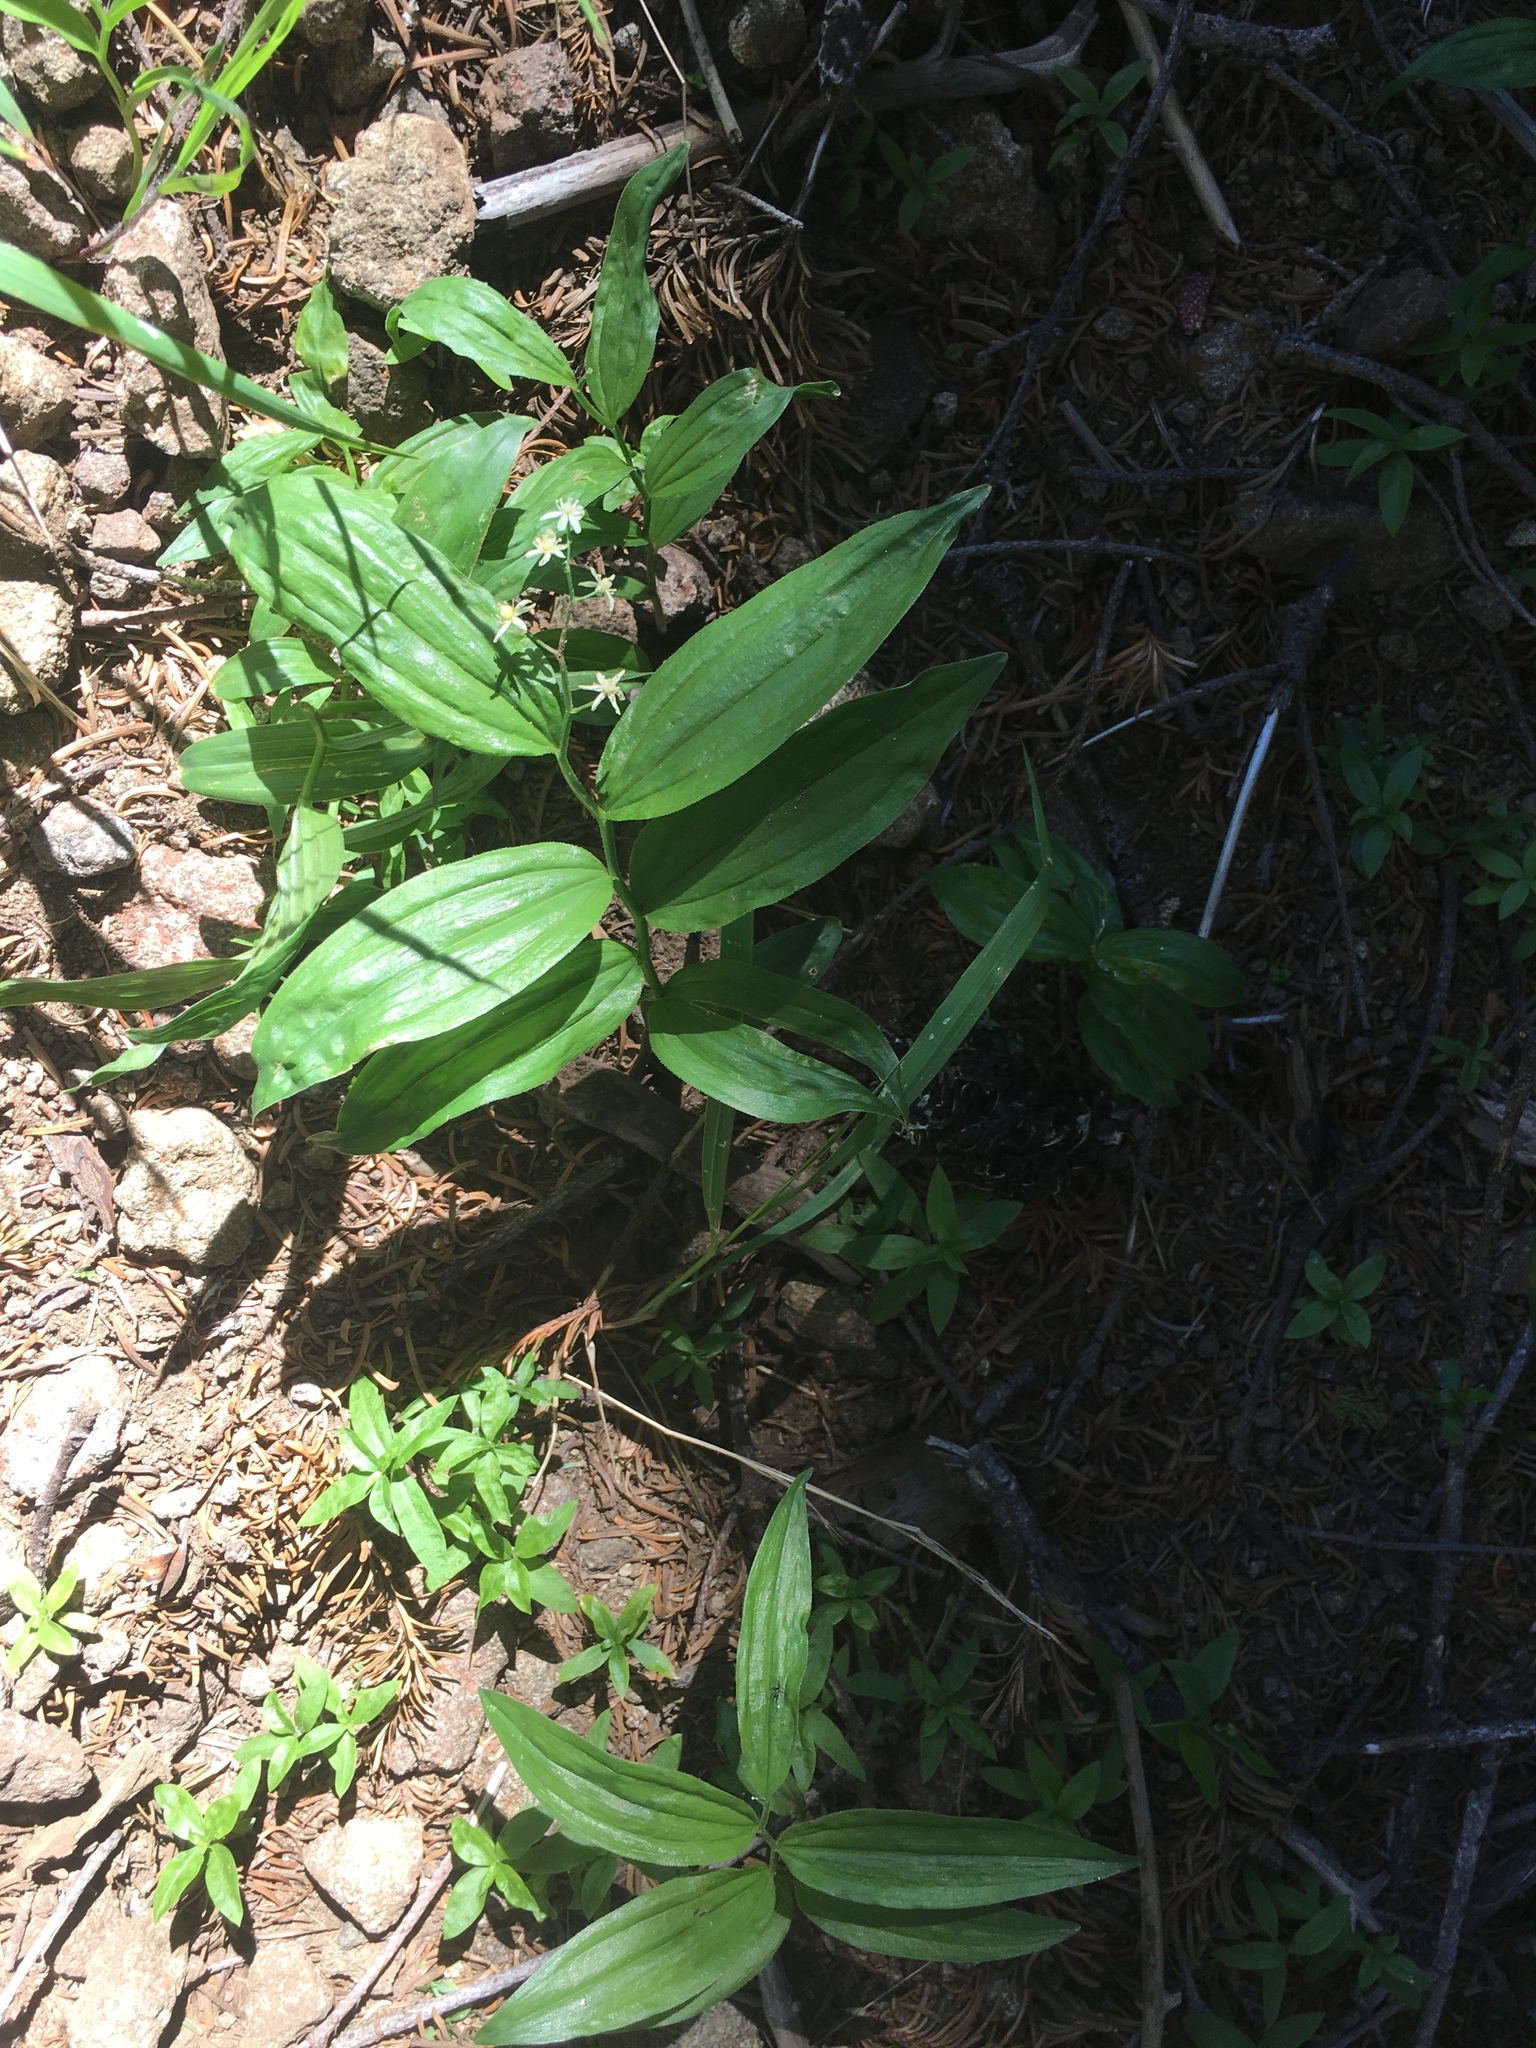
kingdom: Plantae
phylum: Tracheophyta
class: Liliopsida
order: Asparagales
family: Asparagaceae
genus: Maianthemum
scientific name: Maianthemum stellatum
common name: Little false solomon's seal
